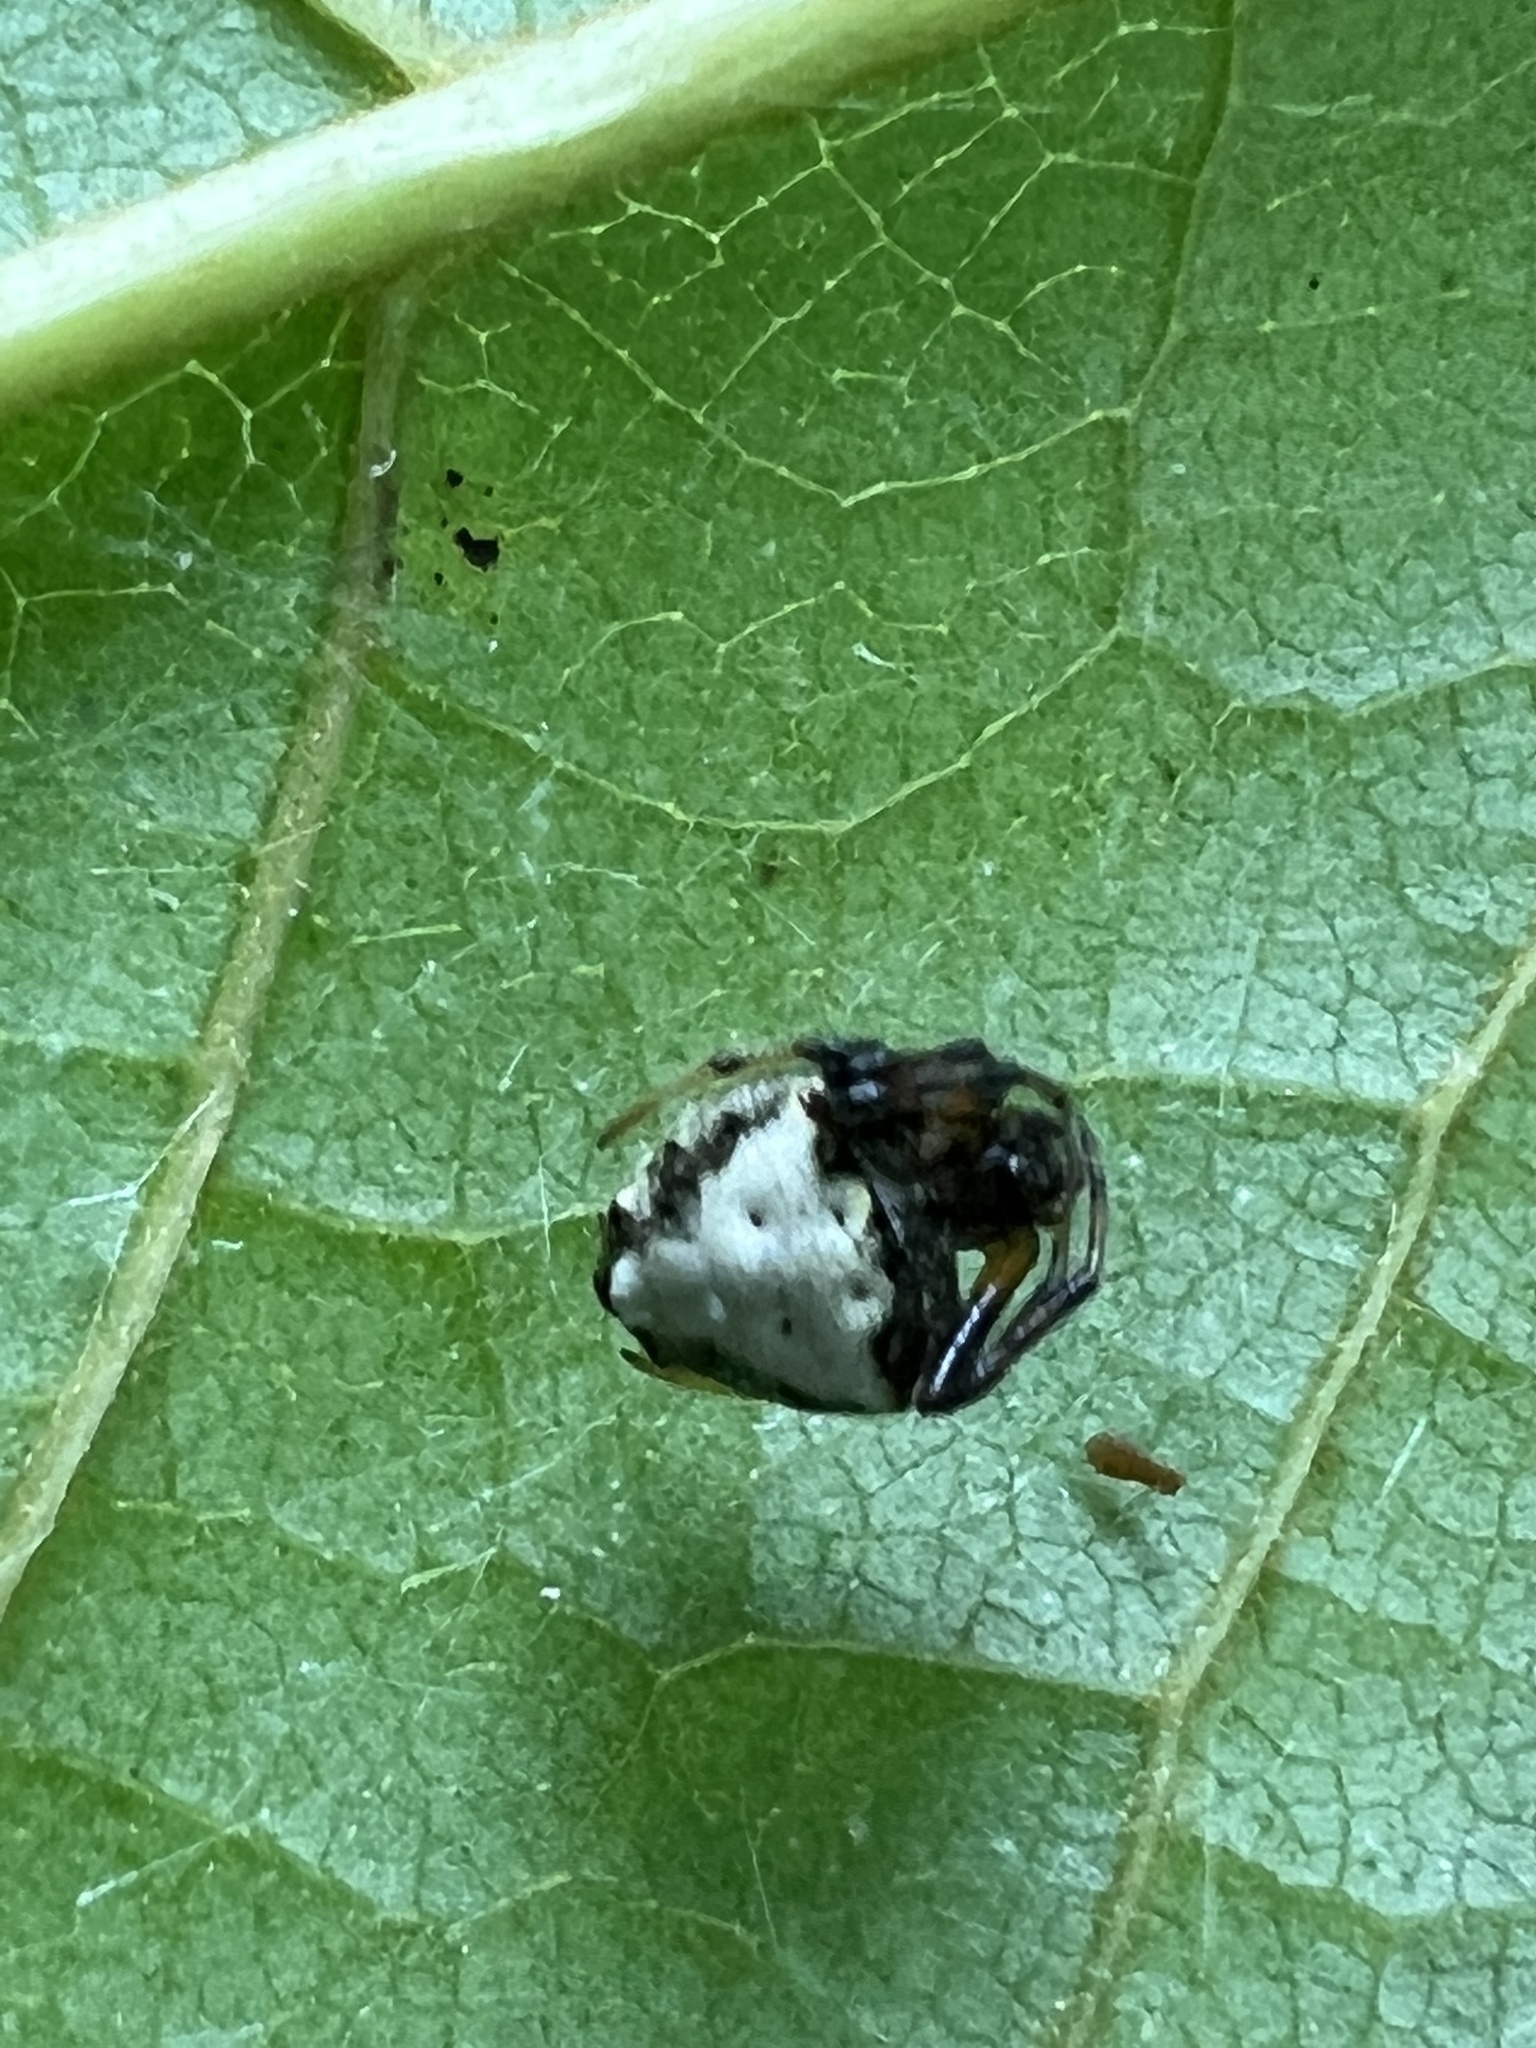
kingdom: Animalia
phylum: Arthropoda
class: Arachnida
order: Araneae
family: Araneidae
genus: Verrucosa
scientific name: Verrucosa arenata
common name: Orb weavers
